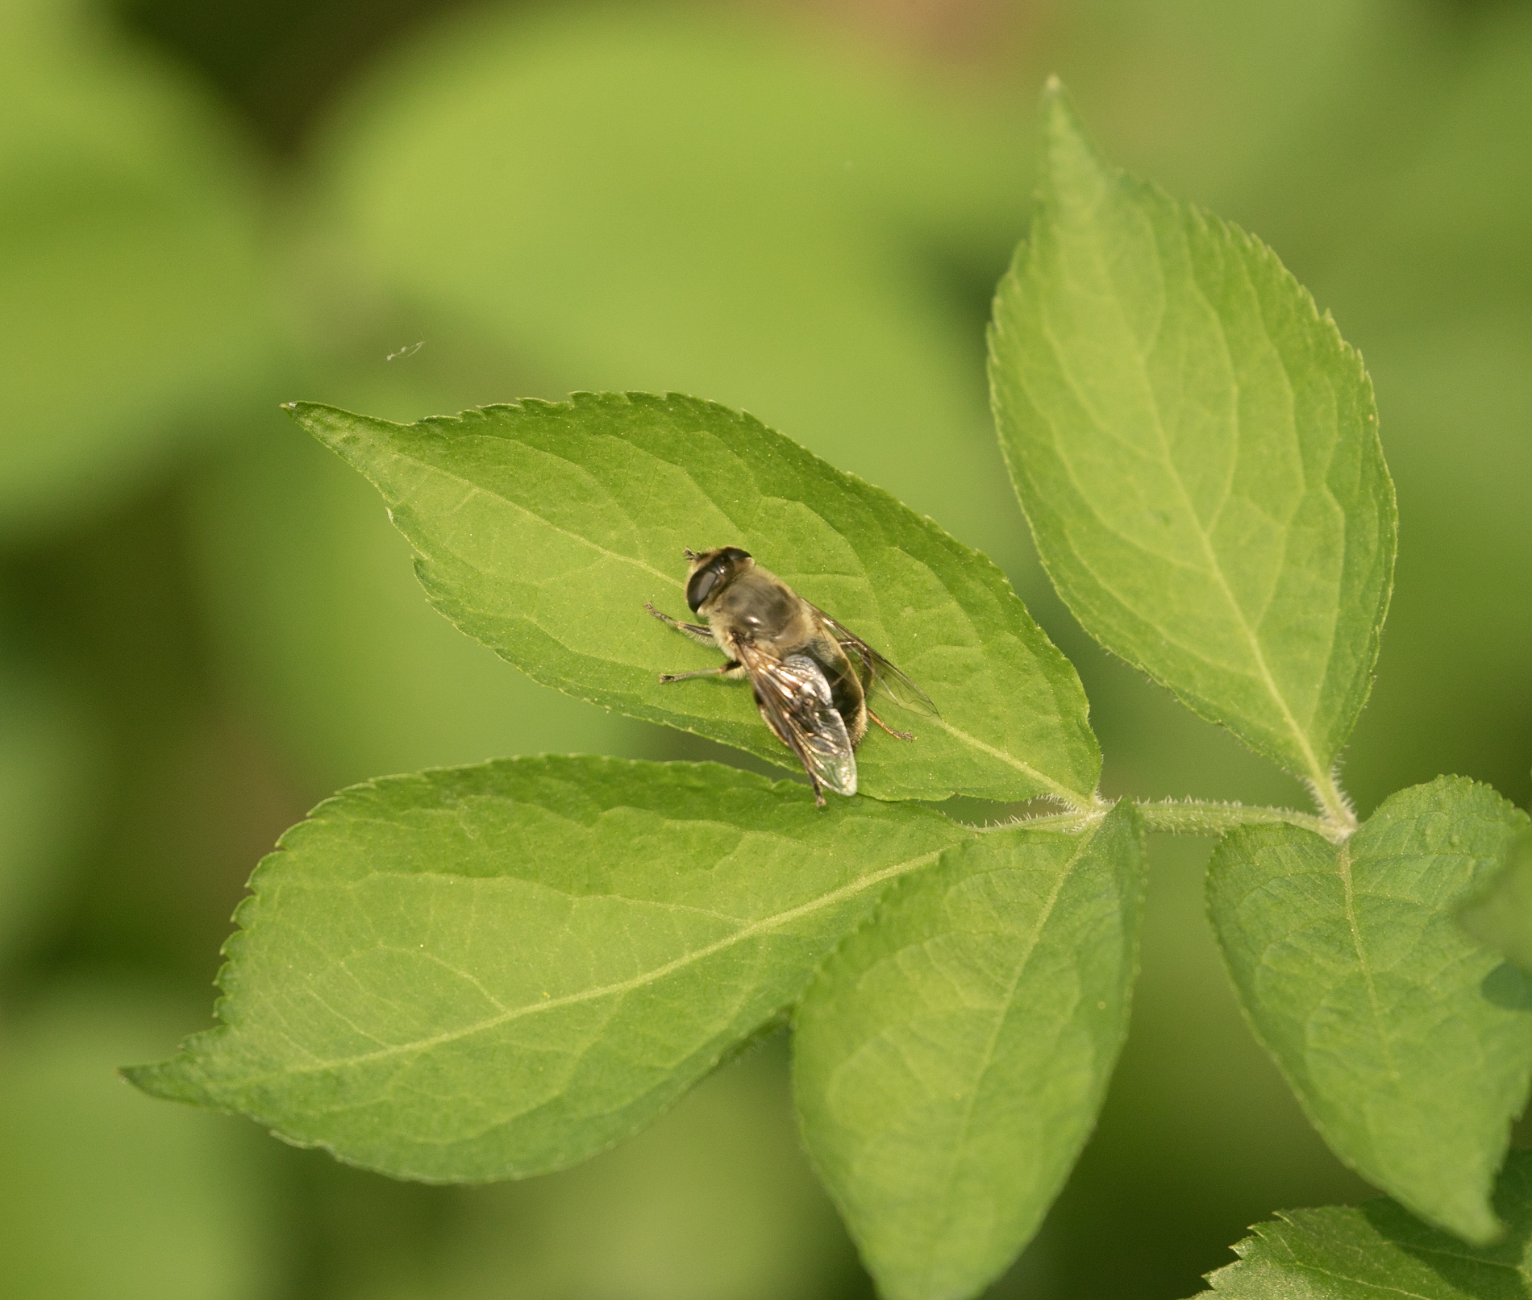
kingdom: Animalia
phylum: Arthropoda
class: Insecta
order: Diptera
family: Syrphidae
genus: Eristalis
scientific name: Eristalis tenax
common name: Drone fly
